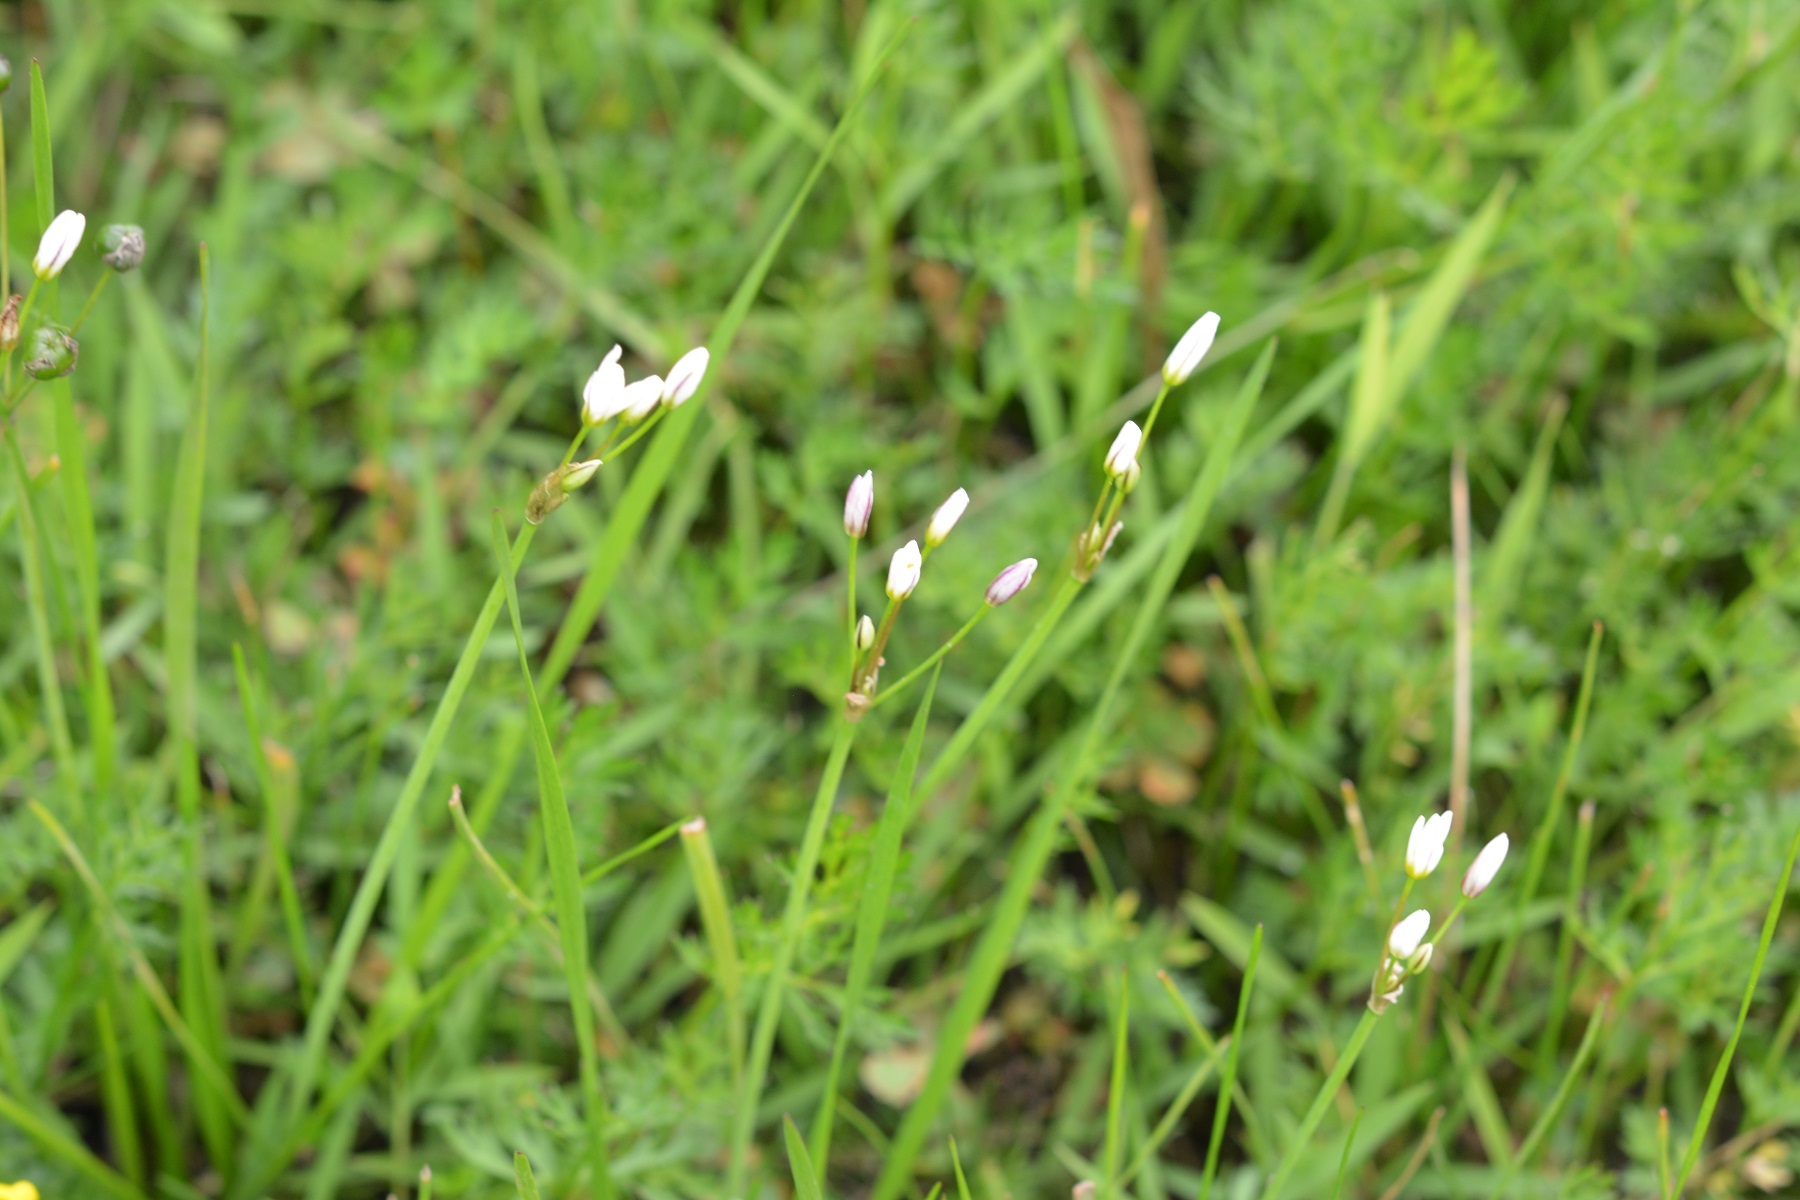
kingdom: Plantae
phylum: Tracheophyta
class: Liliopsida
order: Asparagales
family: Amaryllidaceae
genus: Nothoscordum
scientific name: Nothoscordum gracile
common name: Slender false garlic
